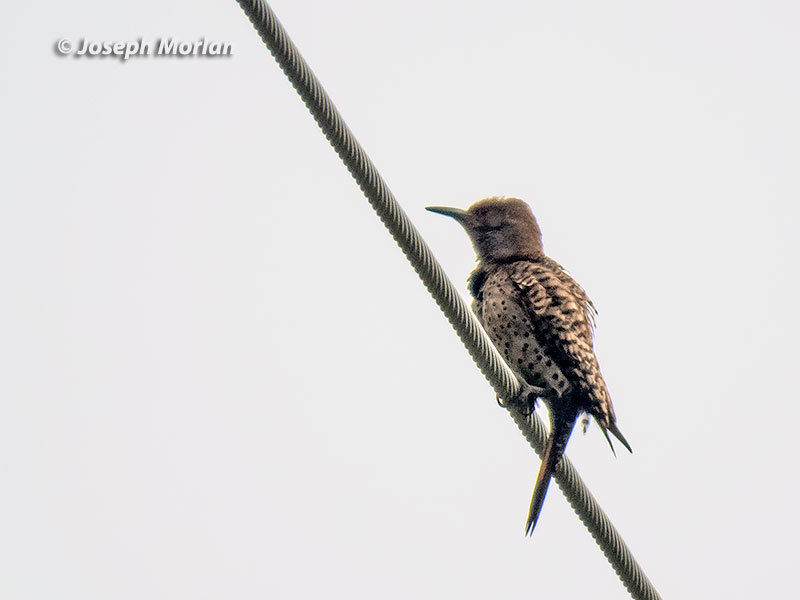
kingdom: Animalia
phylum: Chordata
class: Aves
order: Piciformes
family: Picidae
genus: Colaptes
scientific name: Colaptes auratus
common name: Northern flicker
